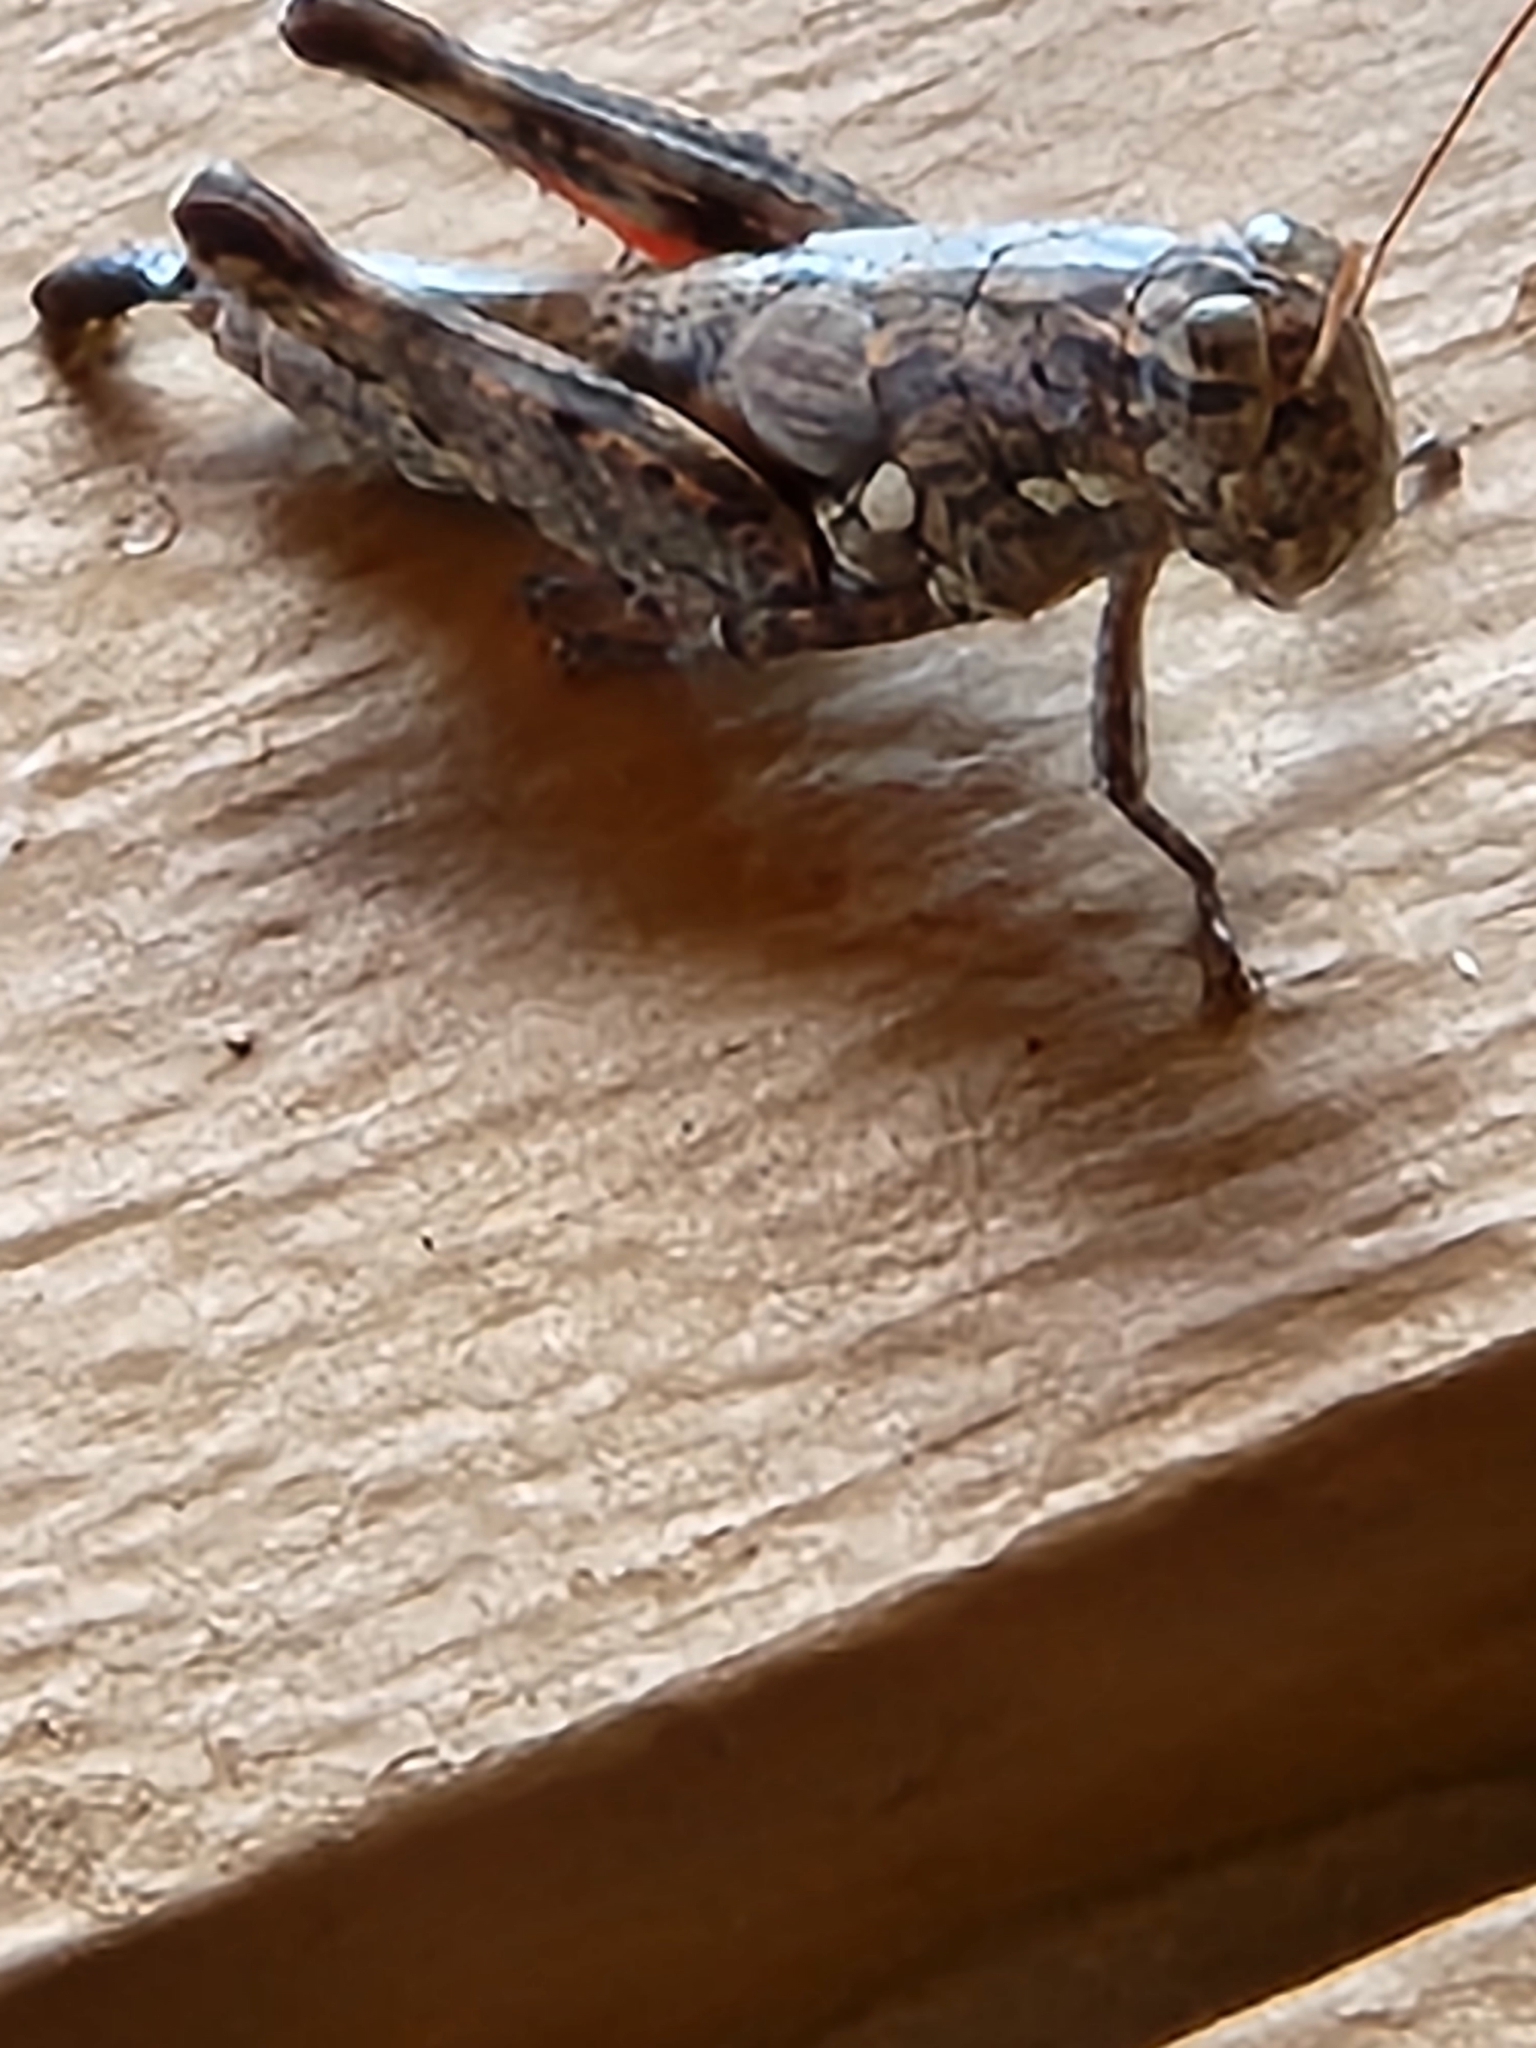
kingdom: Animalia
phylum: Arthropoda
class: Insecta
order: Orthoptera
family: Acrididae
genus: Agroecotettix
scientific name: Agroecotettix modestus
